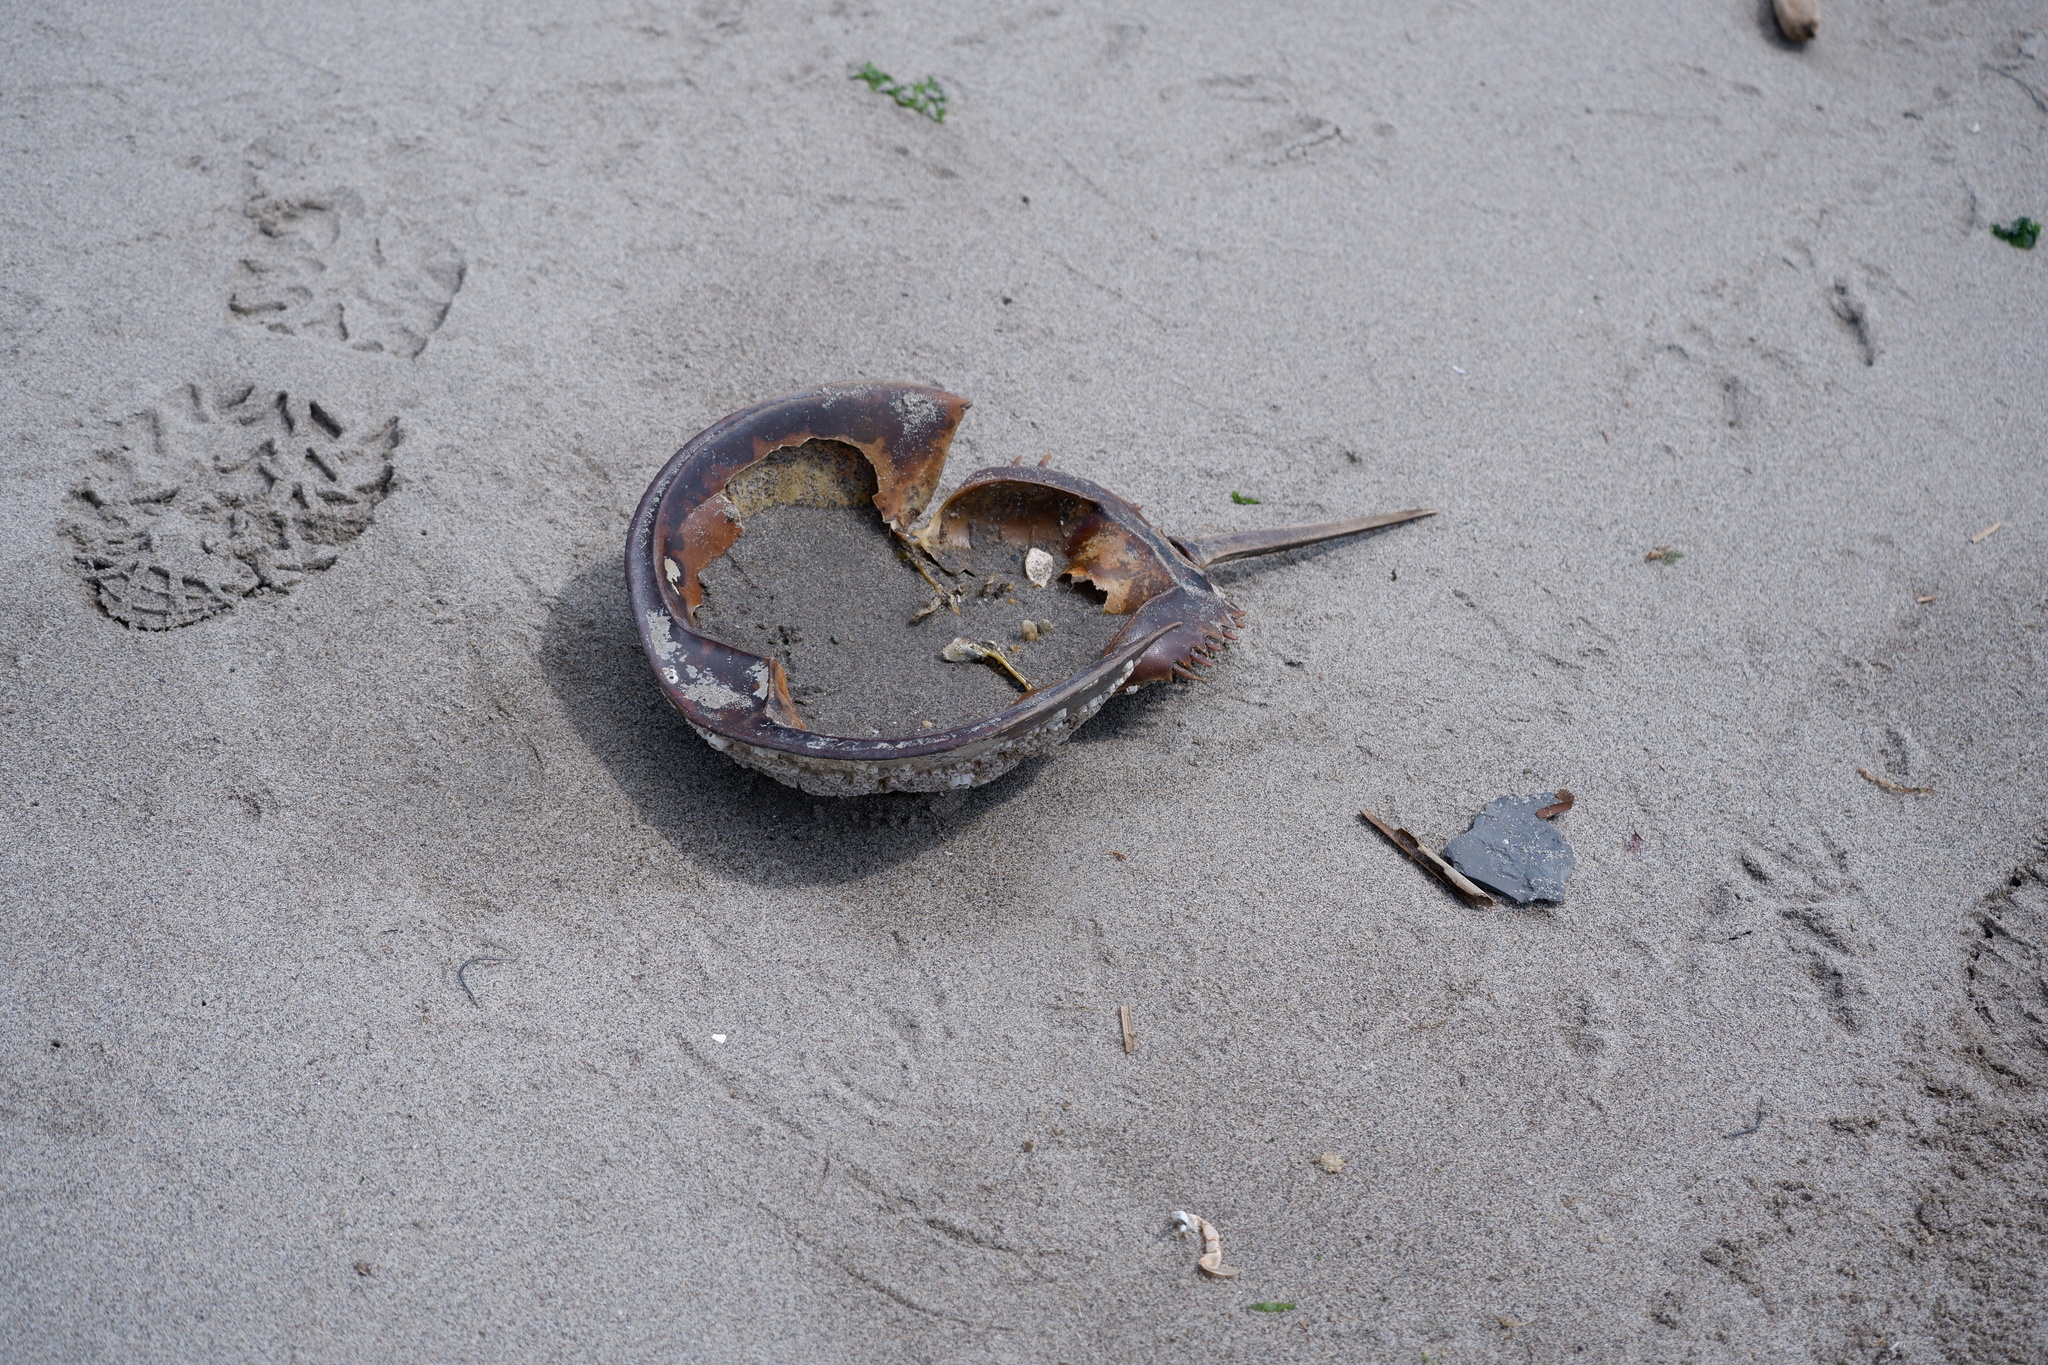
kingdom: Animalia
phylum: Arthropoda
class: Merostomata
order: Xiphosurida
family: Limulidae
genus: Limulus
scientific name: Limulus polyphemus
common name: Horseshoe crab
